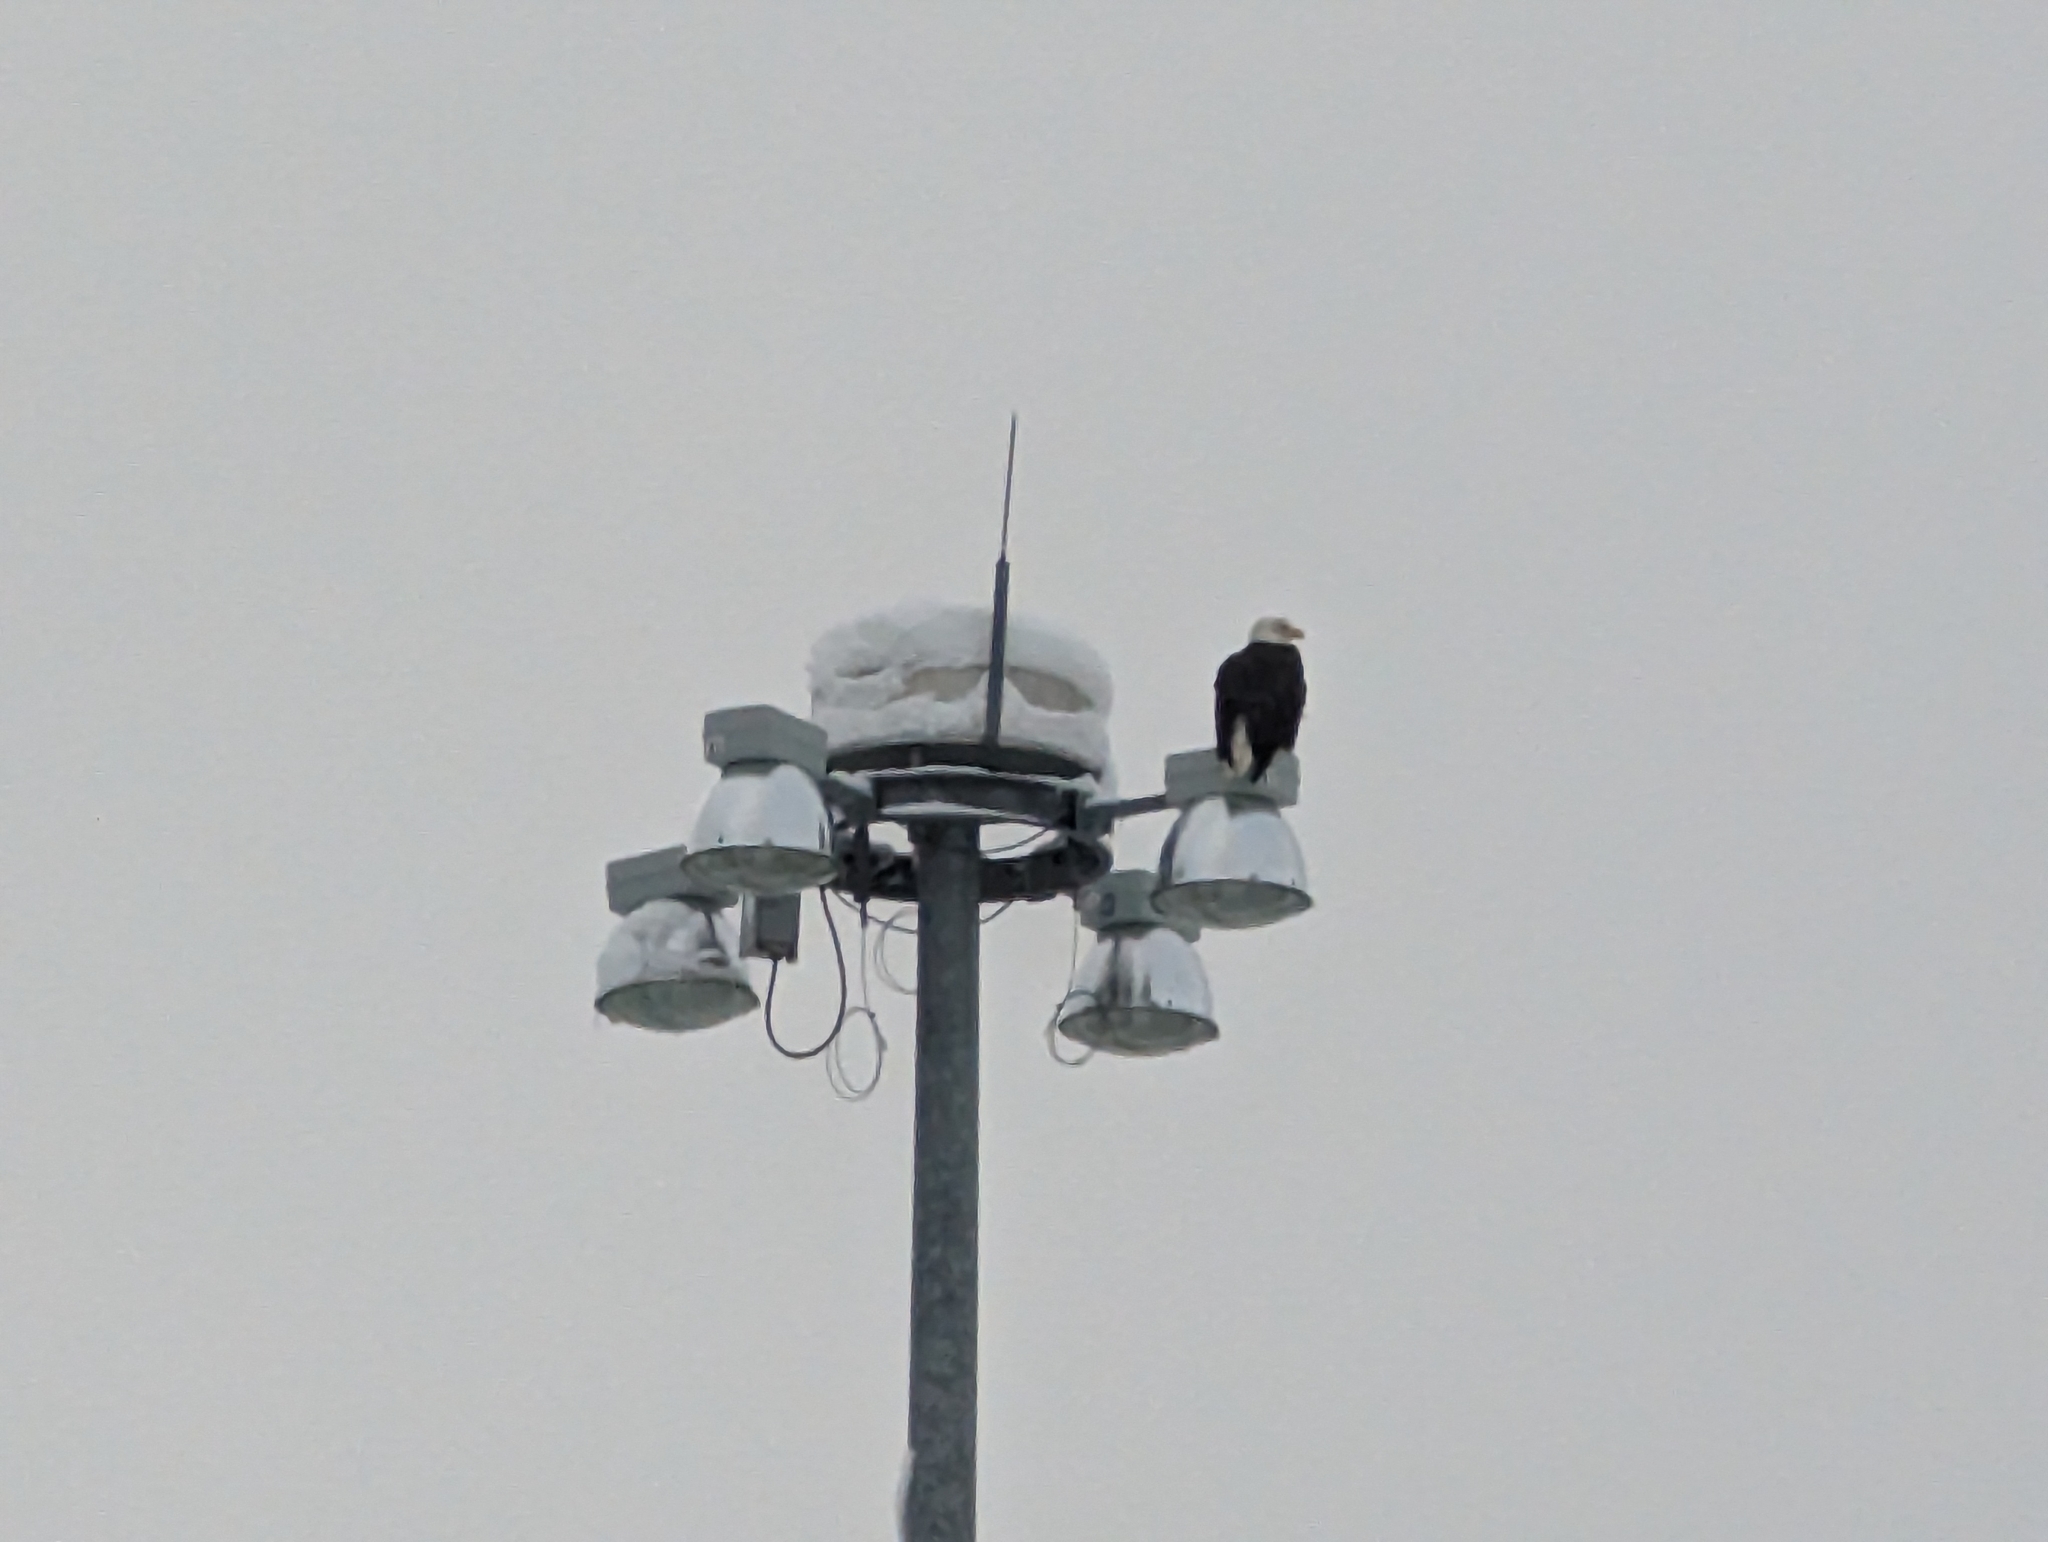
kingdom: Animalia
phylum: Chordata
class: Aves
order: Accipitriformes
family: Accipitridae
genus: Haliaeetus
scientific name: Haliaeetus leucocephalus
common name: Bald eagle
